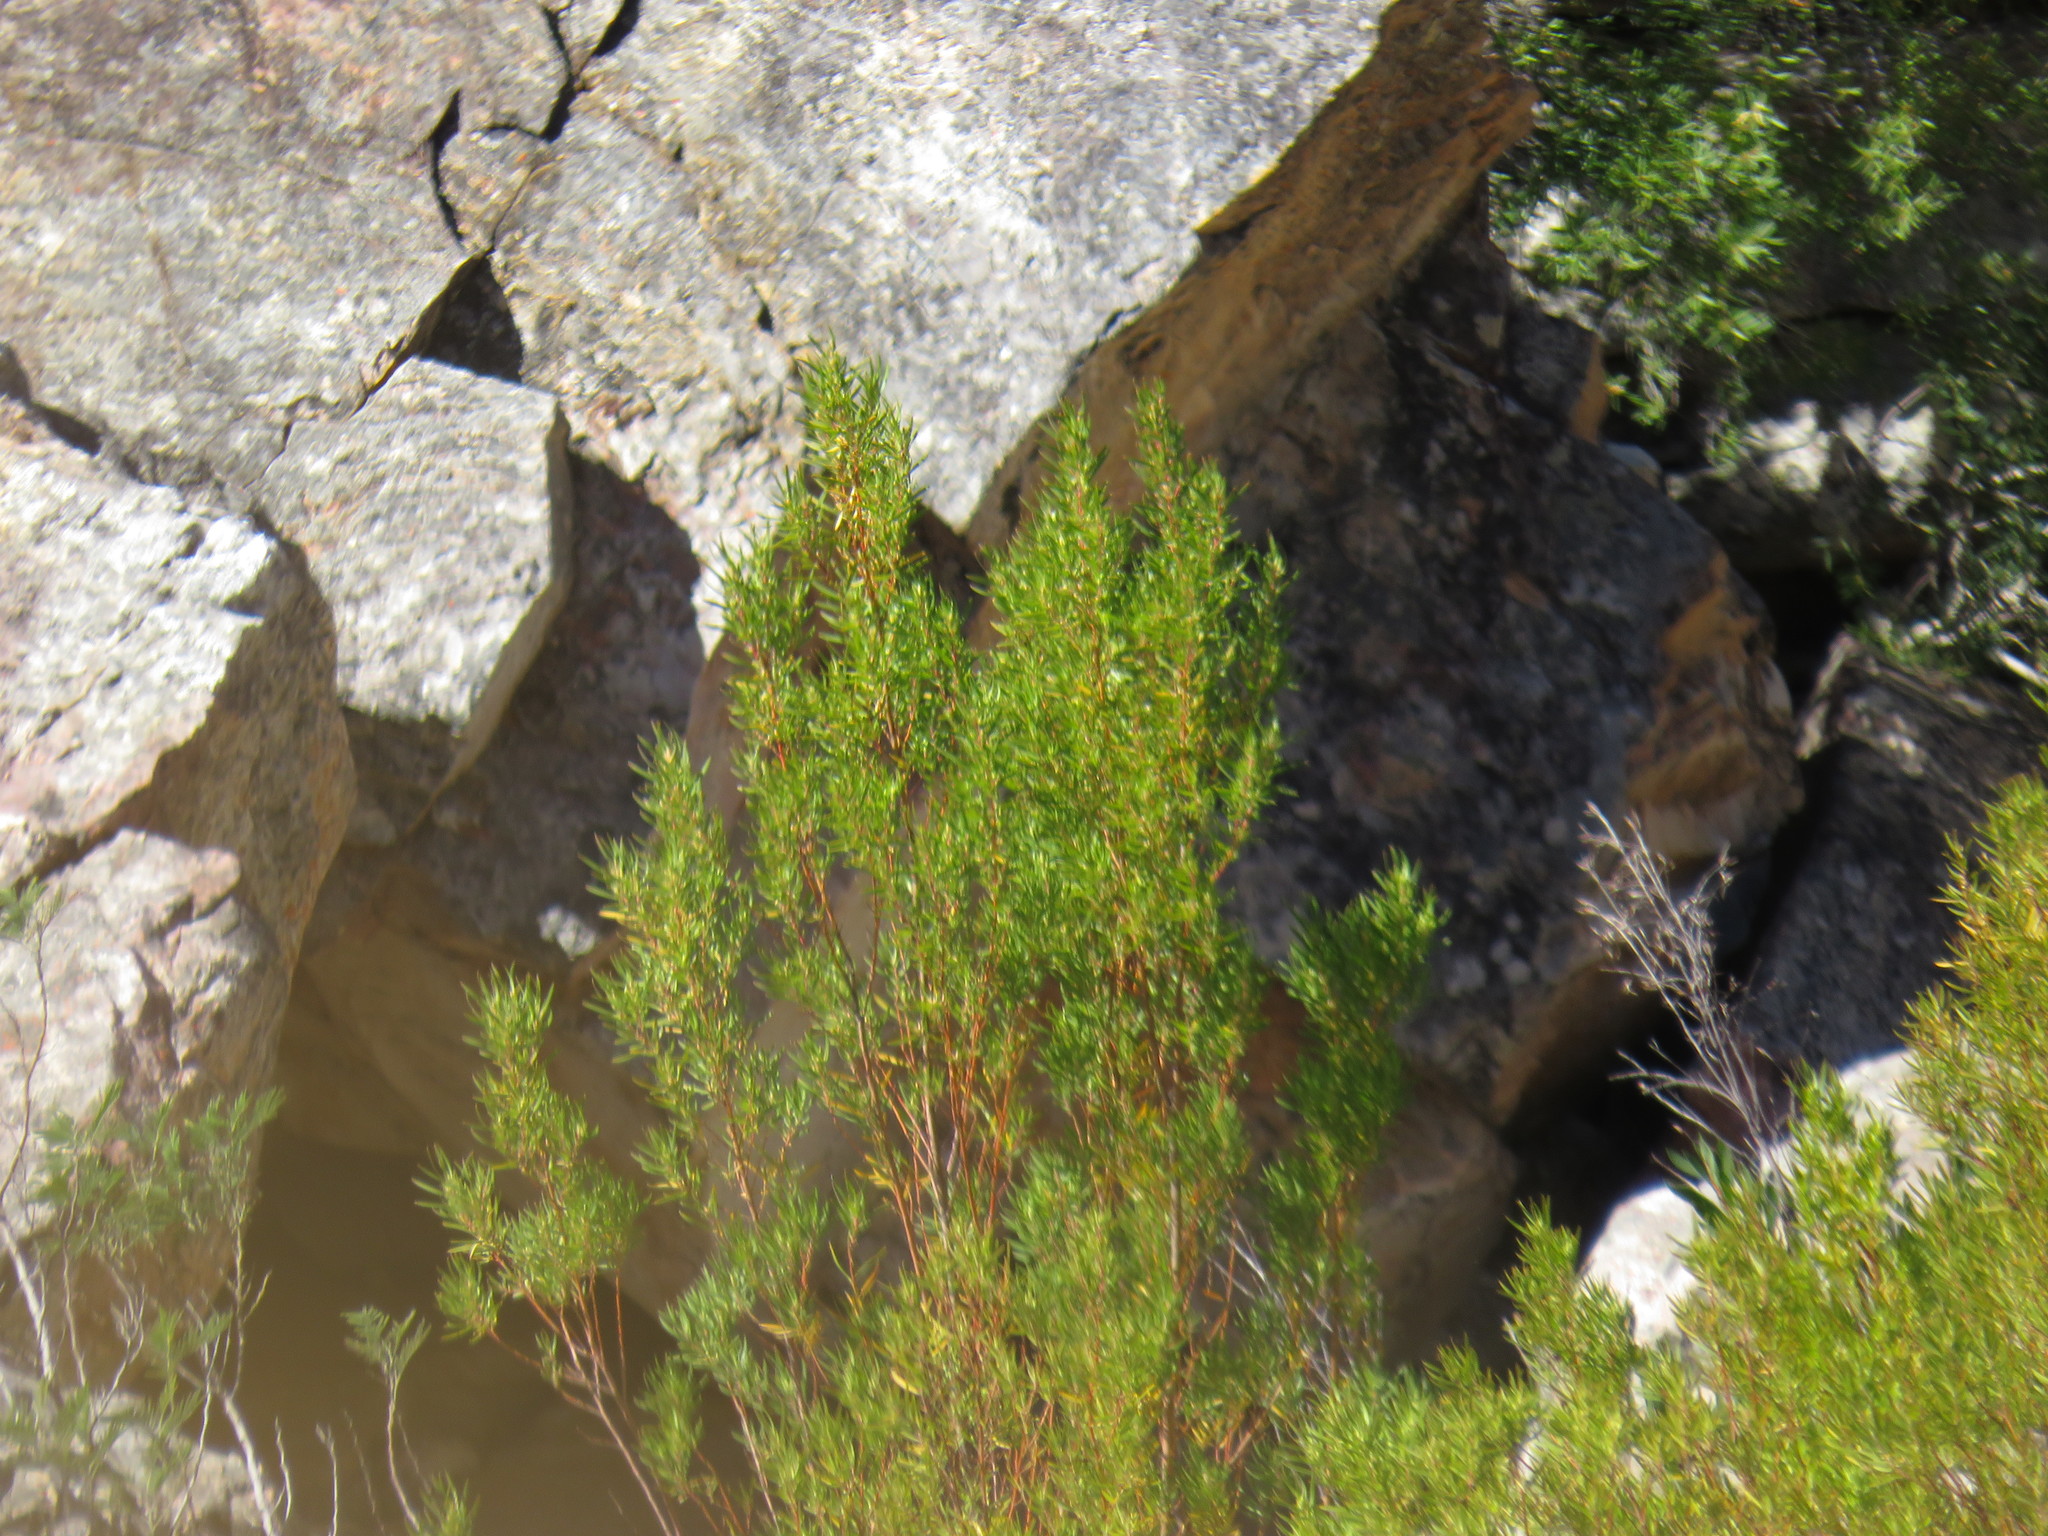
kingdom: Plantae
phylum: Tracheophyta
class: Magnoliopsida
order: Proteales
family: Proteaceae
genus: Leucadendron
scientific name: Leucadendron salicifolium
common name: Common stream conebush
